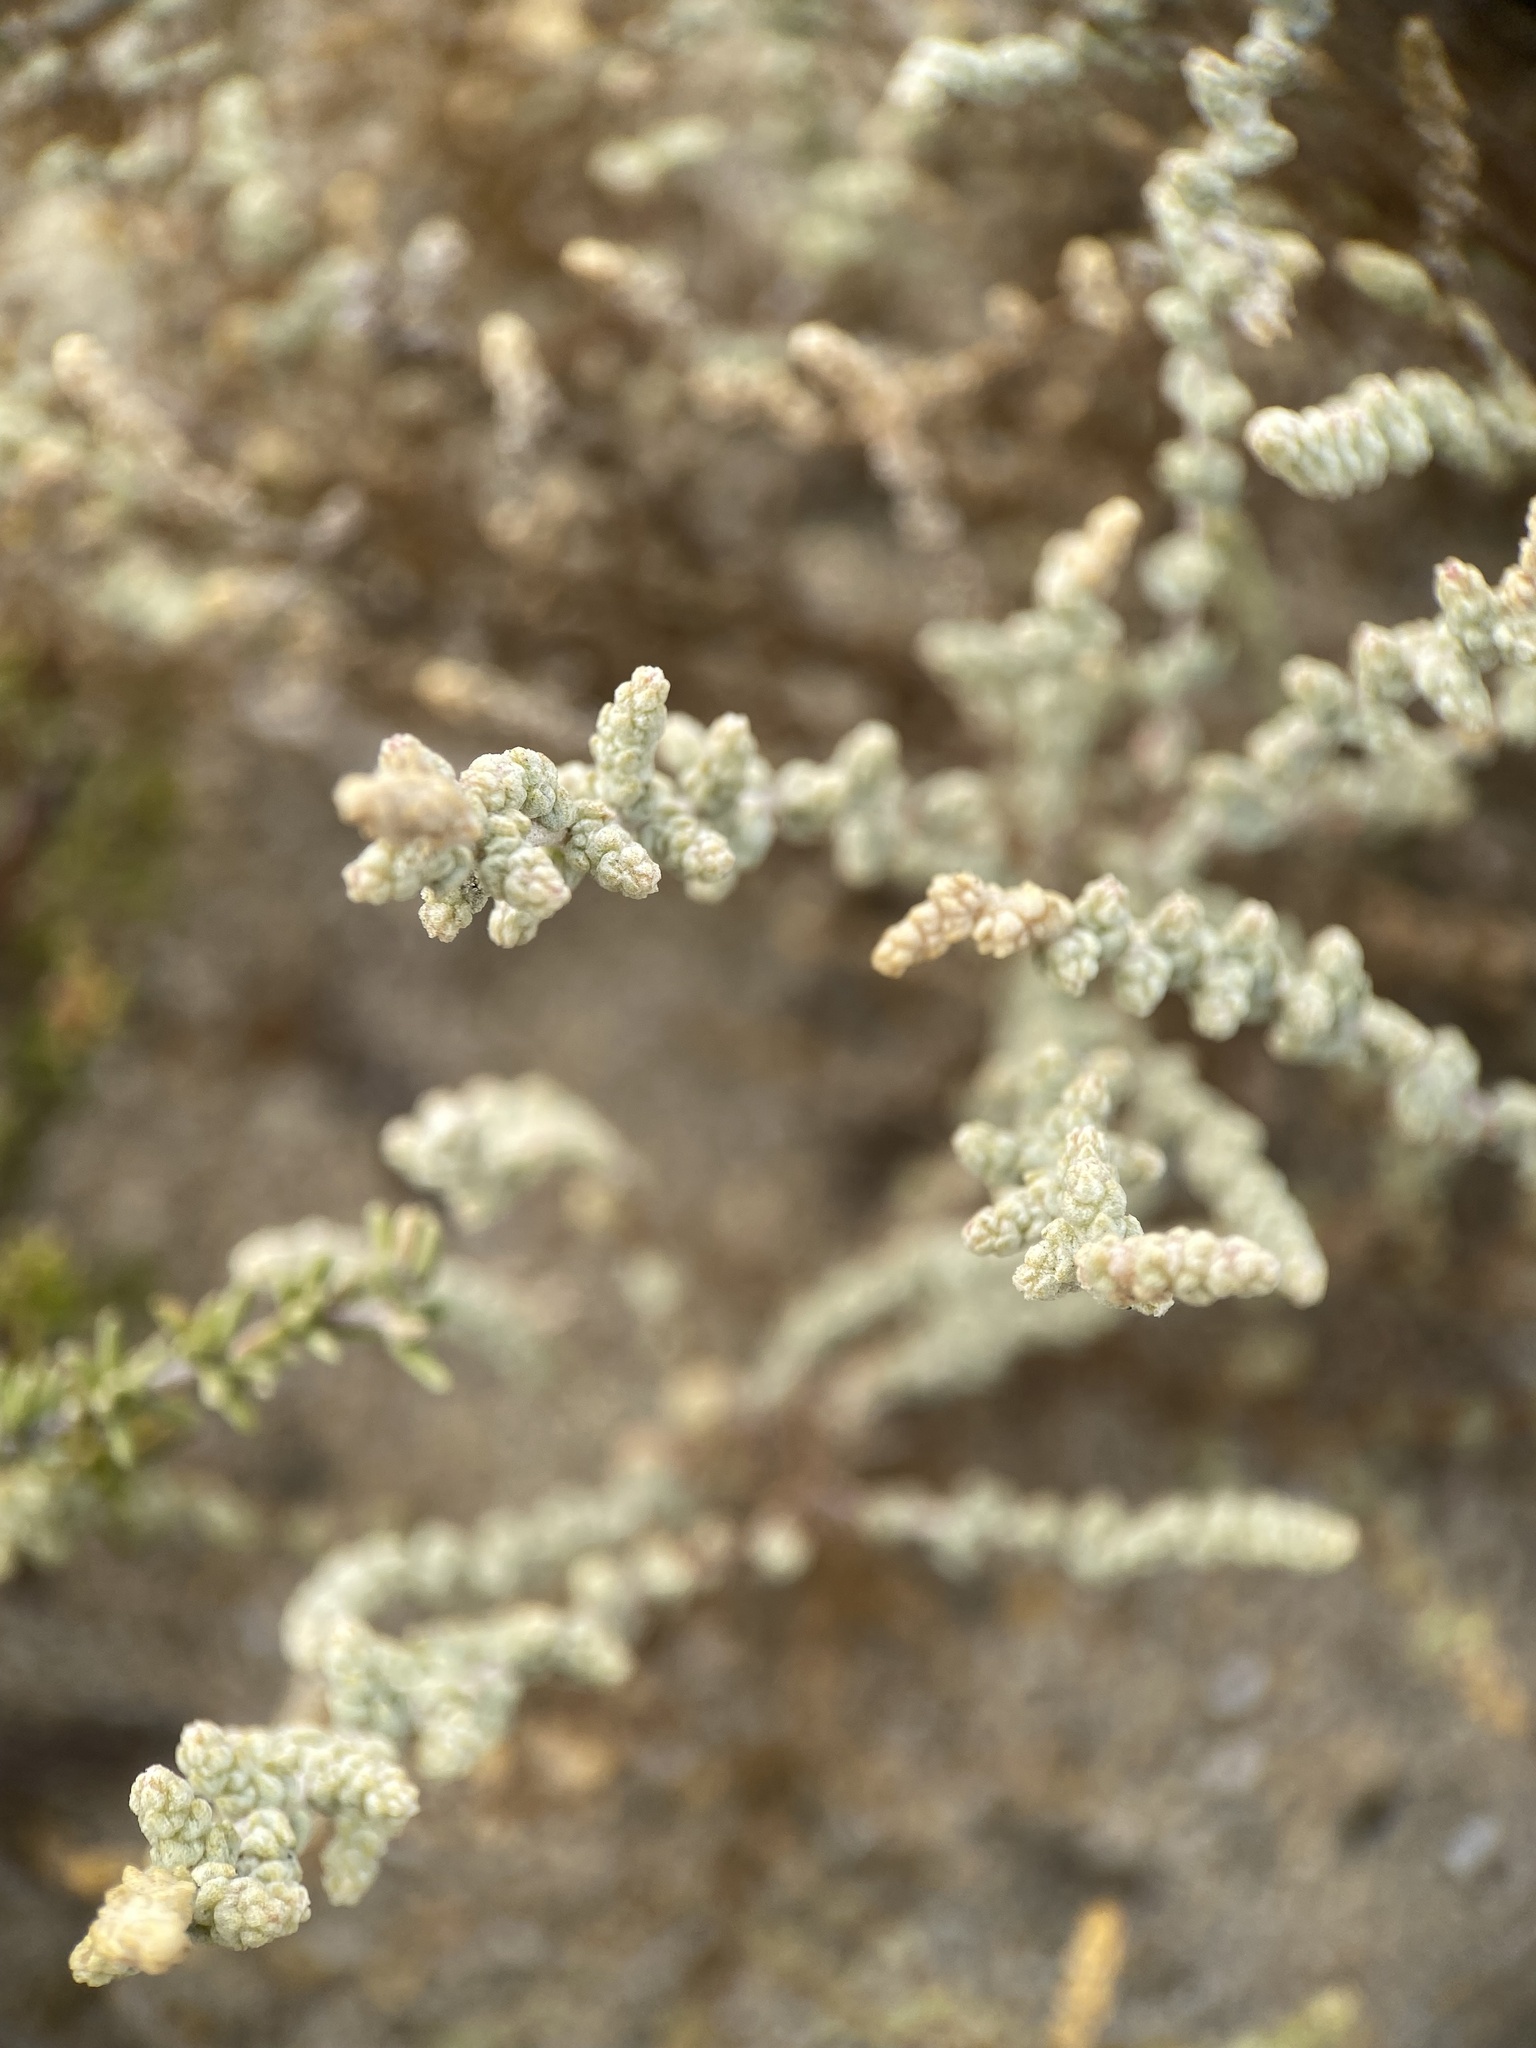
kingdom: Plantae
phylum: Tracheophyta
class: Magnoliopsida
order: Caryophyllales
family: Amaranthaceae
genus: Atriplex
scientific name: Atriplex julacea
